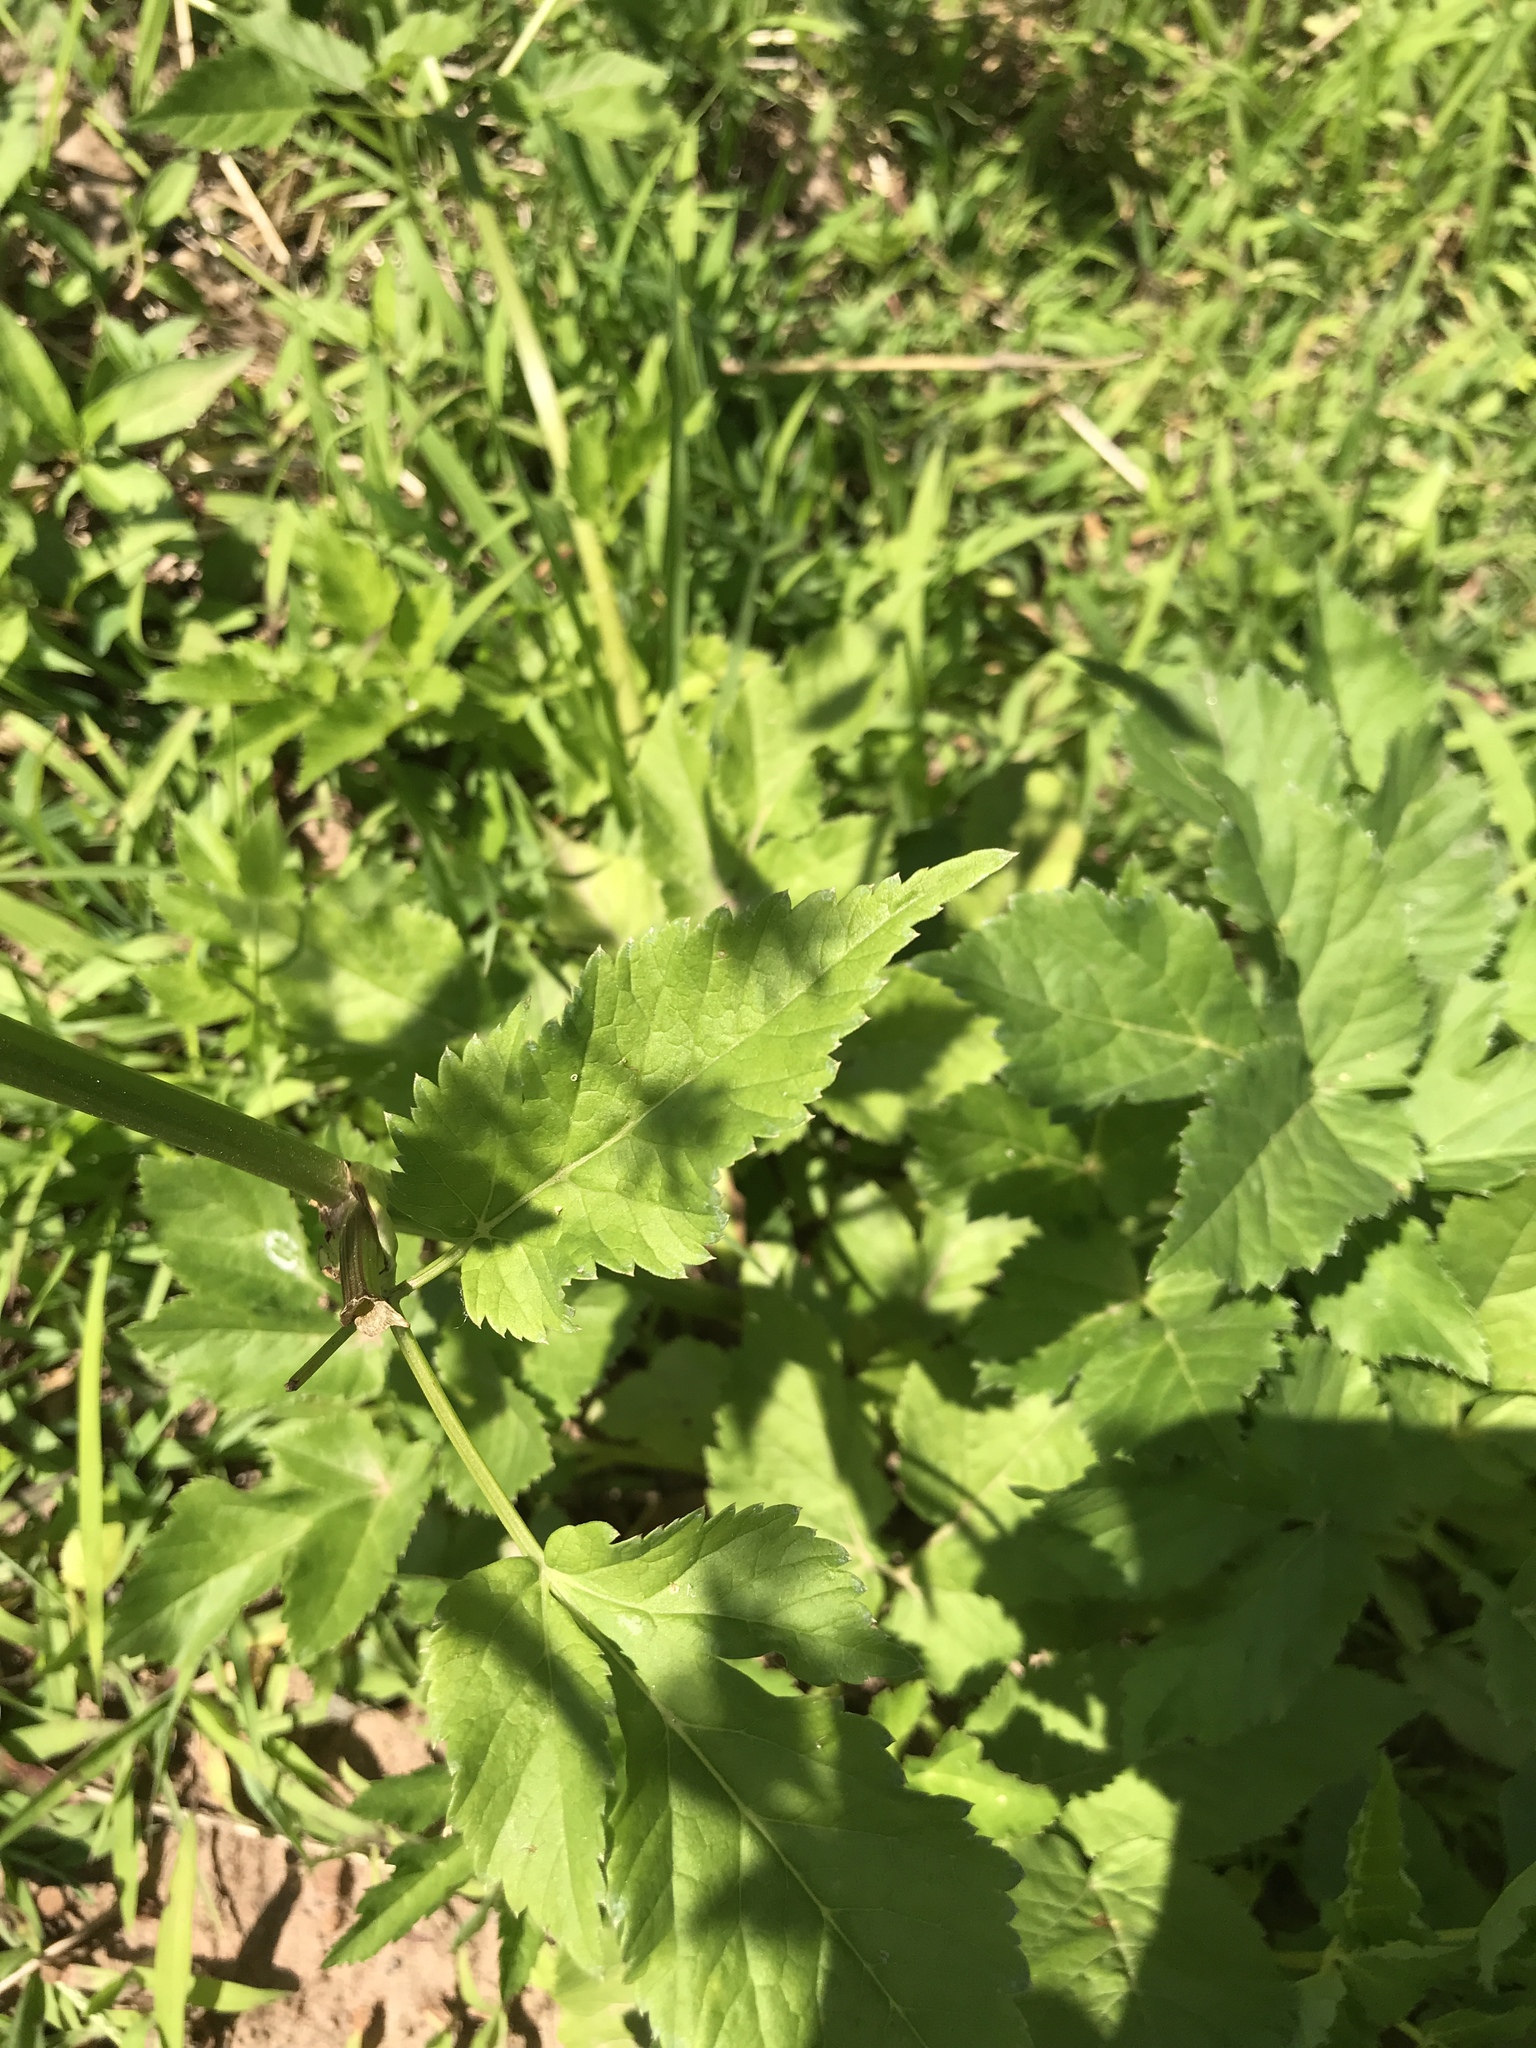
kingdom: Plantae
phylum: Tracheophyta
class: Magnoliopsida
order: Apiales
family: Apiaceae
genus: Aegopodium
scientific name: Aegopodium podagraria
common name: Ground-elder
